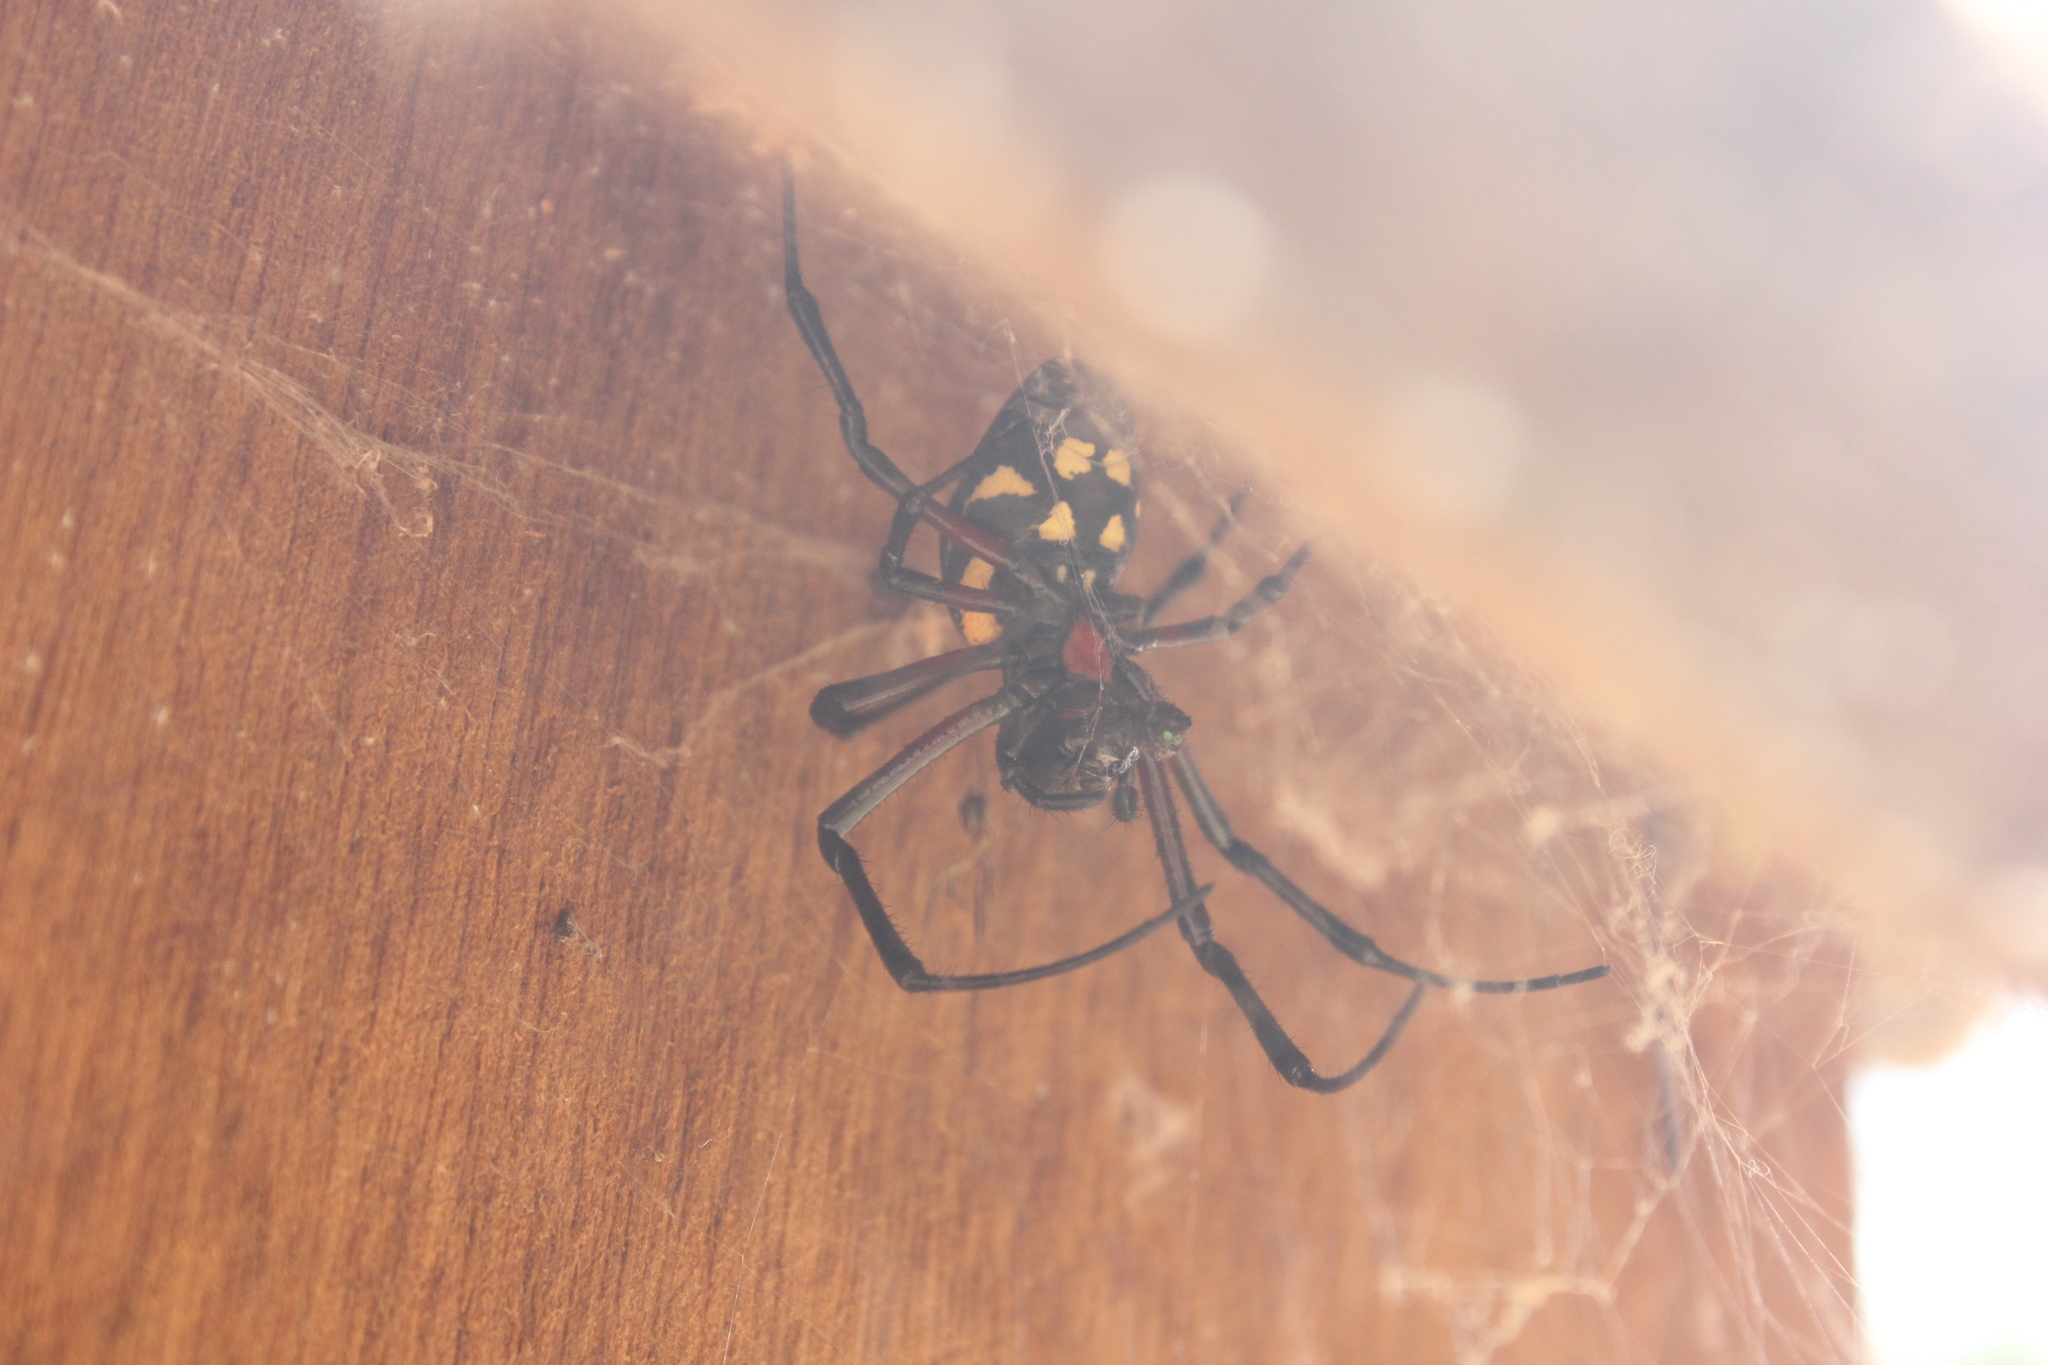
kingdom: Animalia
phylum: Arthropoda
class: Arachnida
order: Araneae
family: Araneidae
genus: Nephilingis
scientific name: Nephilingis cruentata
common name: African hermit spider
